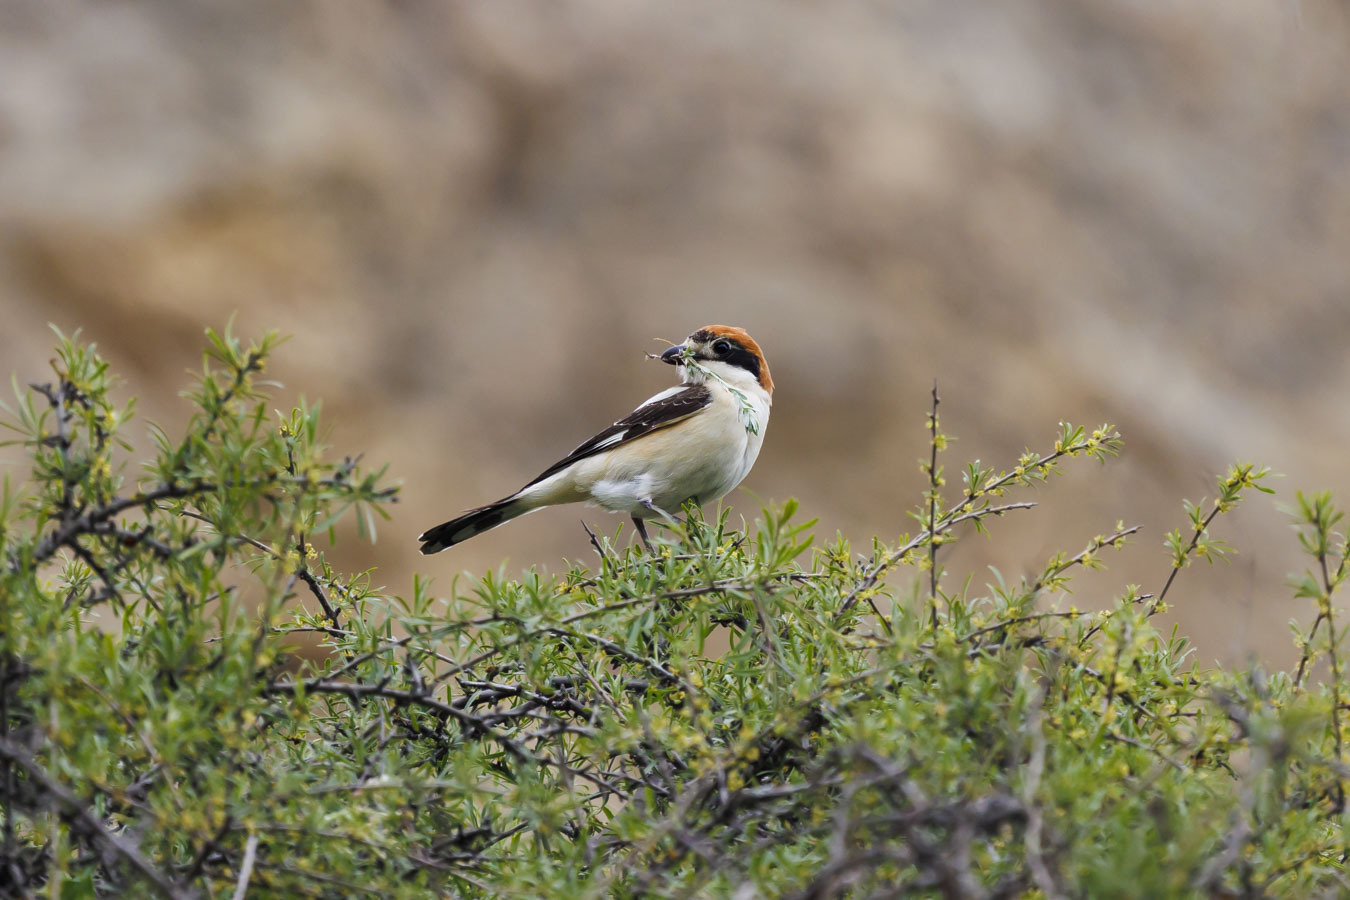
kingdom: Animalia
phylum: Chordata
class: Aves
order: Passeriformes
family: Laniidae
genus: Lanius
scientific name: Lanius senator
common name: Woodchat shrike
